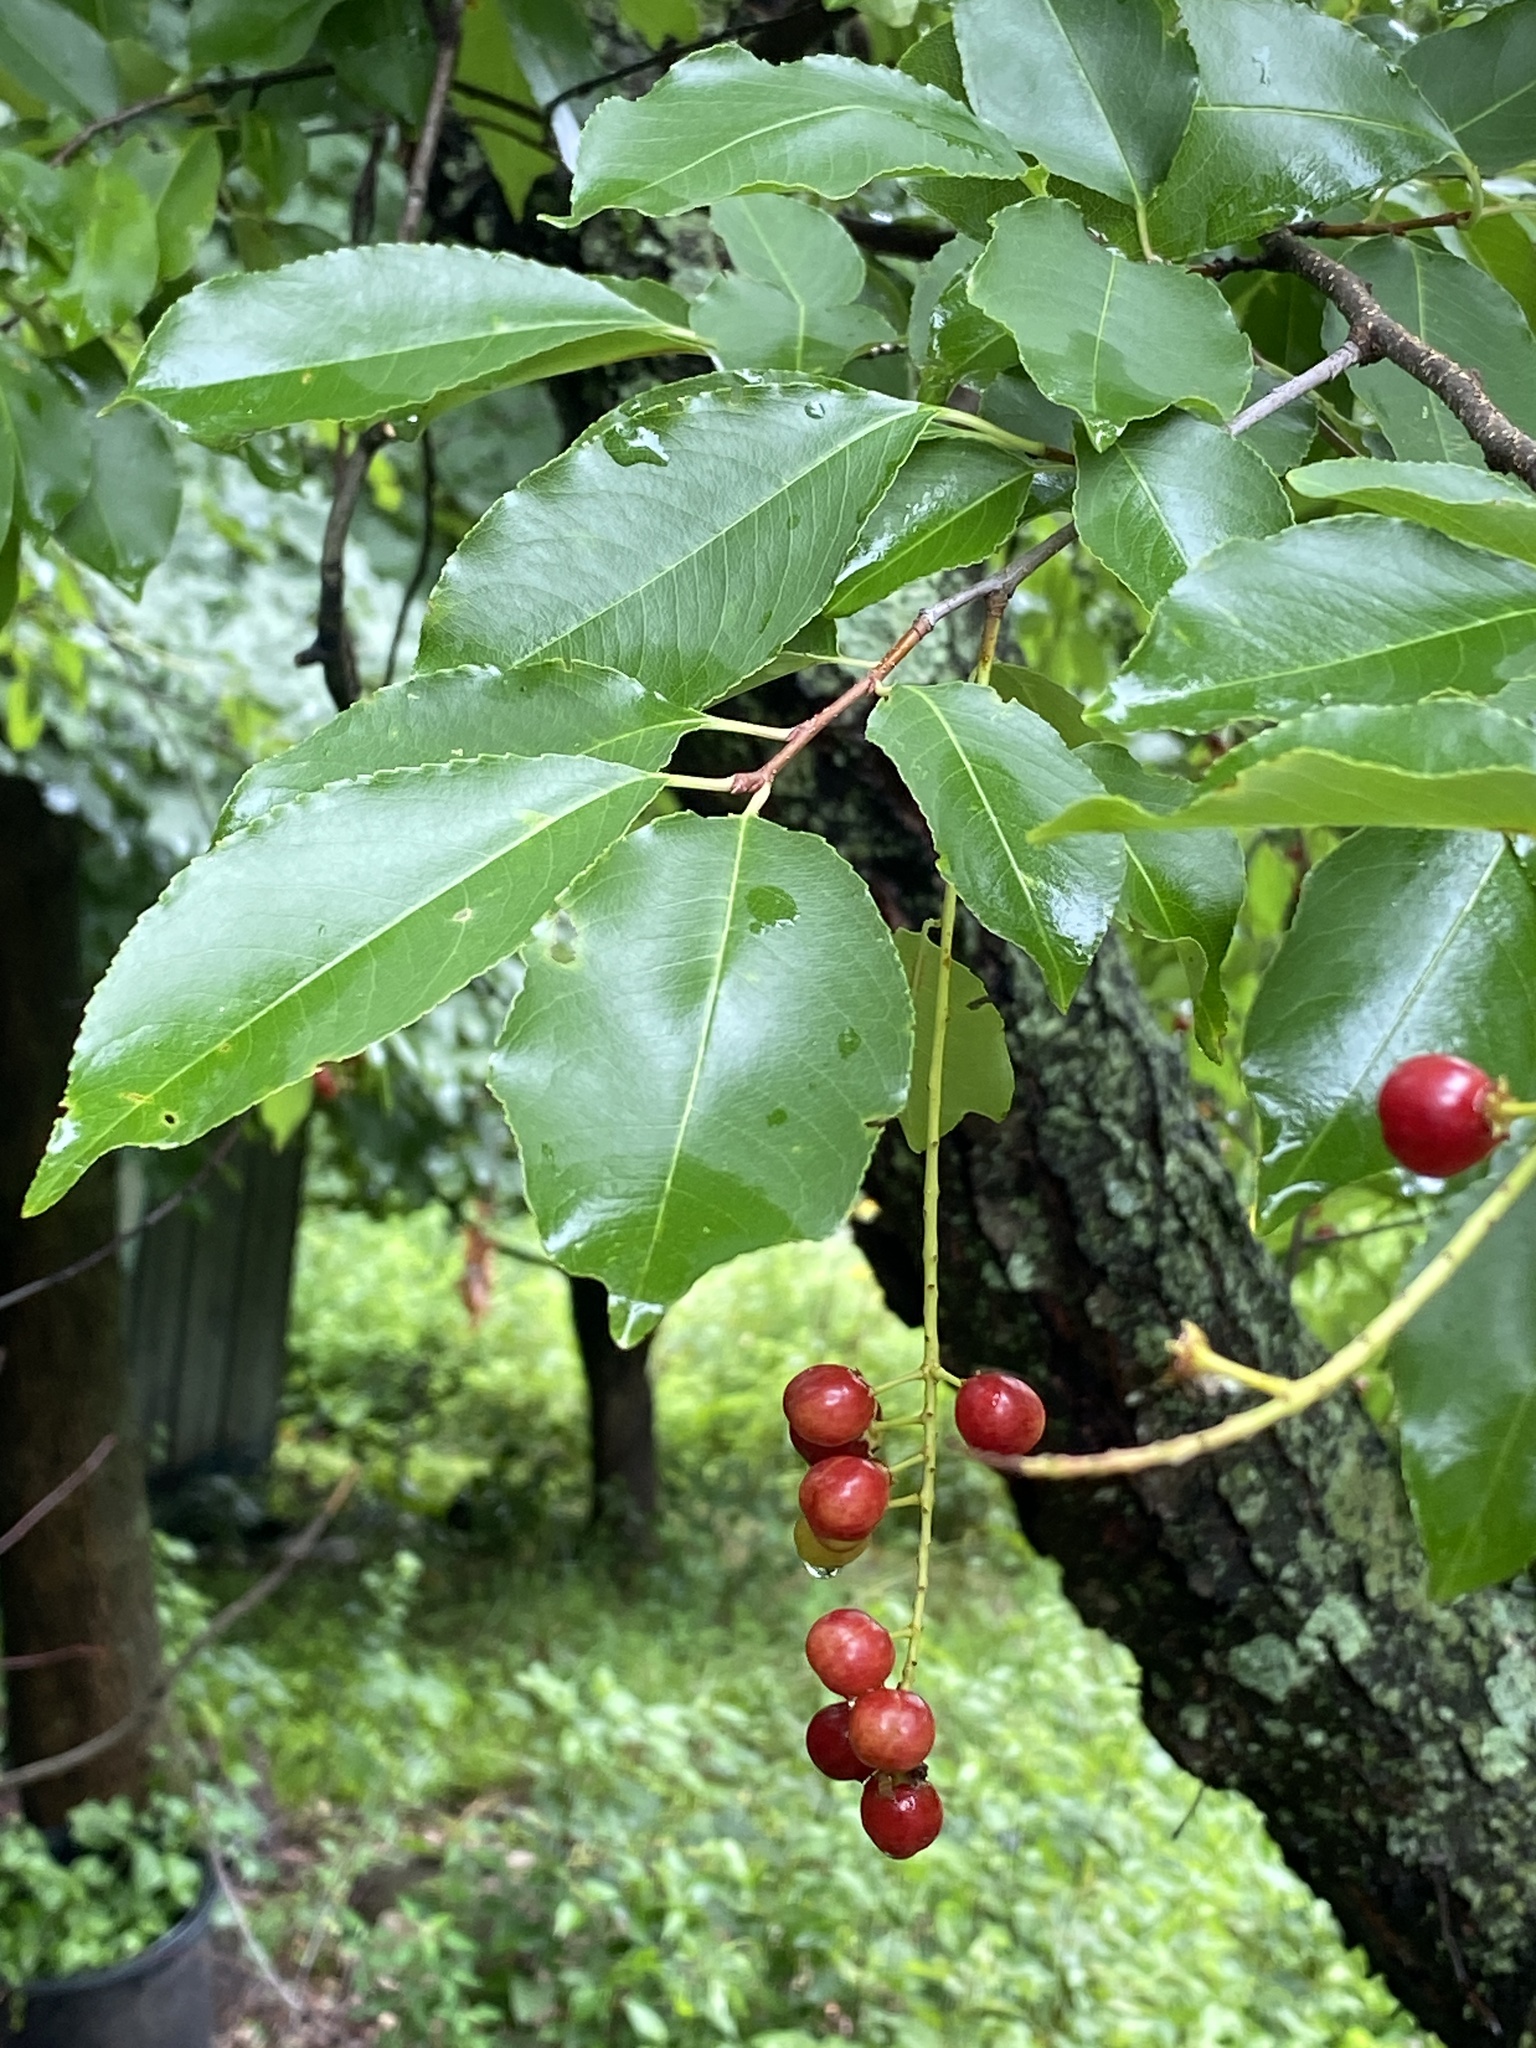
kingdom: Plantae
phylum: Tracheophyta
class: Magnoliopsida
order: Rosales
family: Rosaceae
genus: Prunus
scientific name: Prunus serotina
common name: Black cherry
